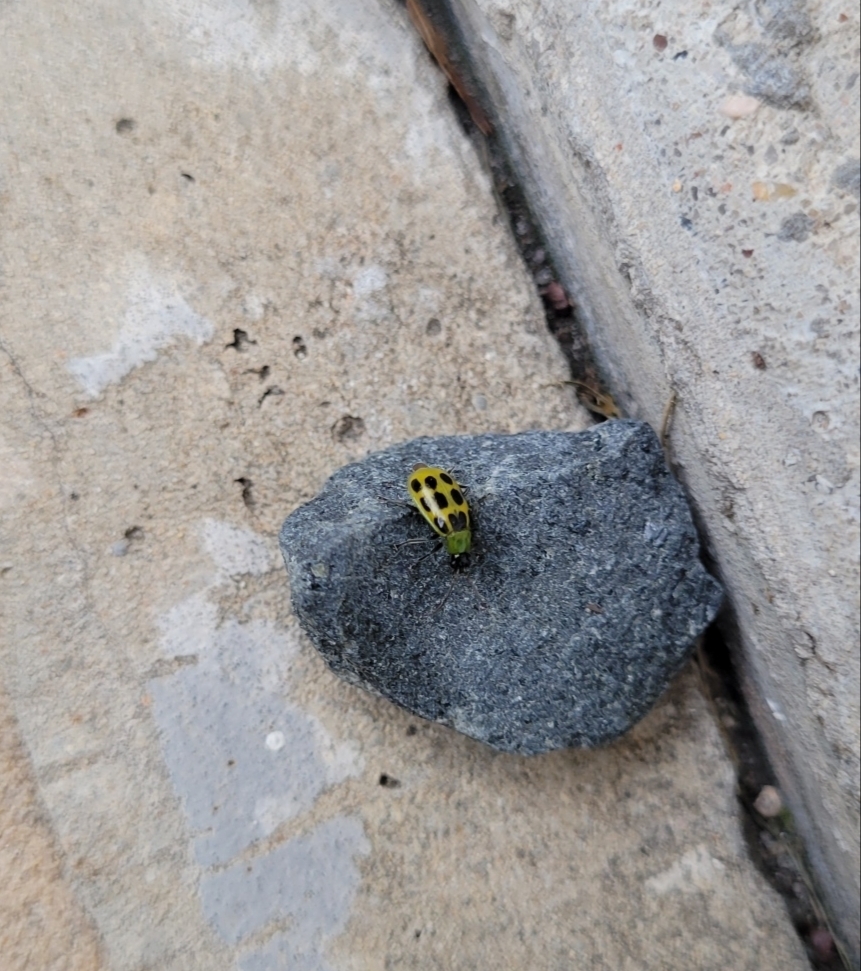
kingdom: Animalia
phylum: Arthropoda
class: Insecta
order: Coleoptera
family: Chrysomelidae
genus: Diabrotica
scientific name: Diabrotica undecimpunctata
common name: Spotted cucumber beetle
